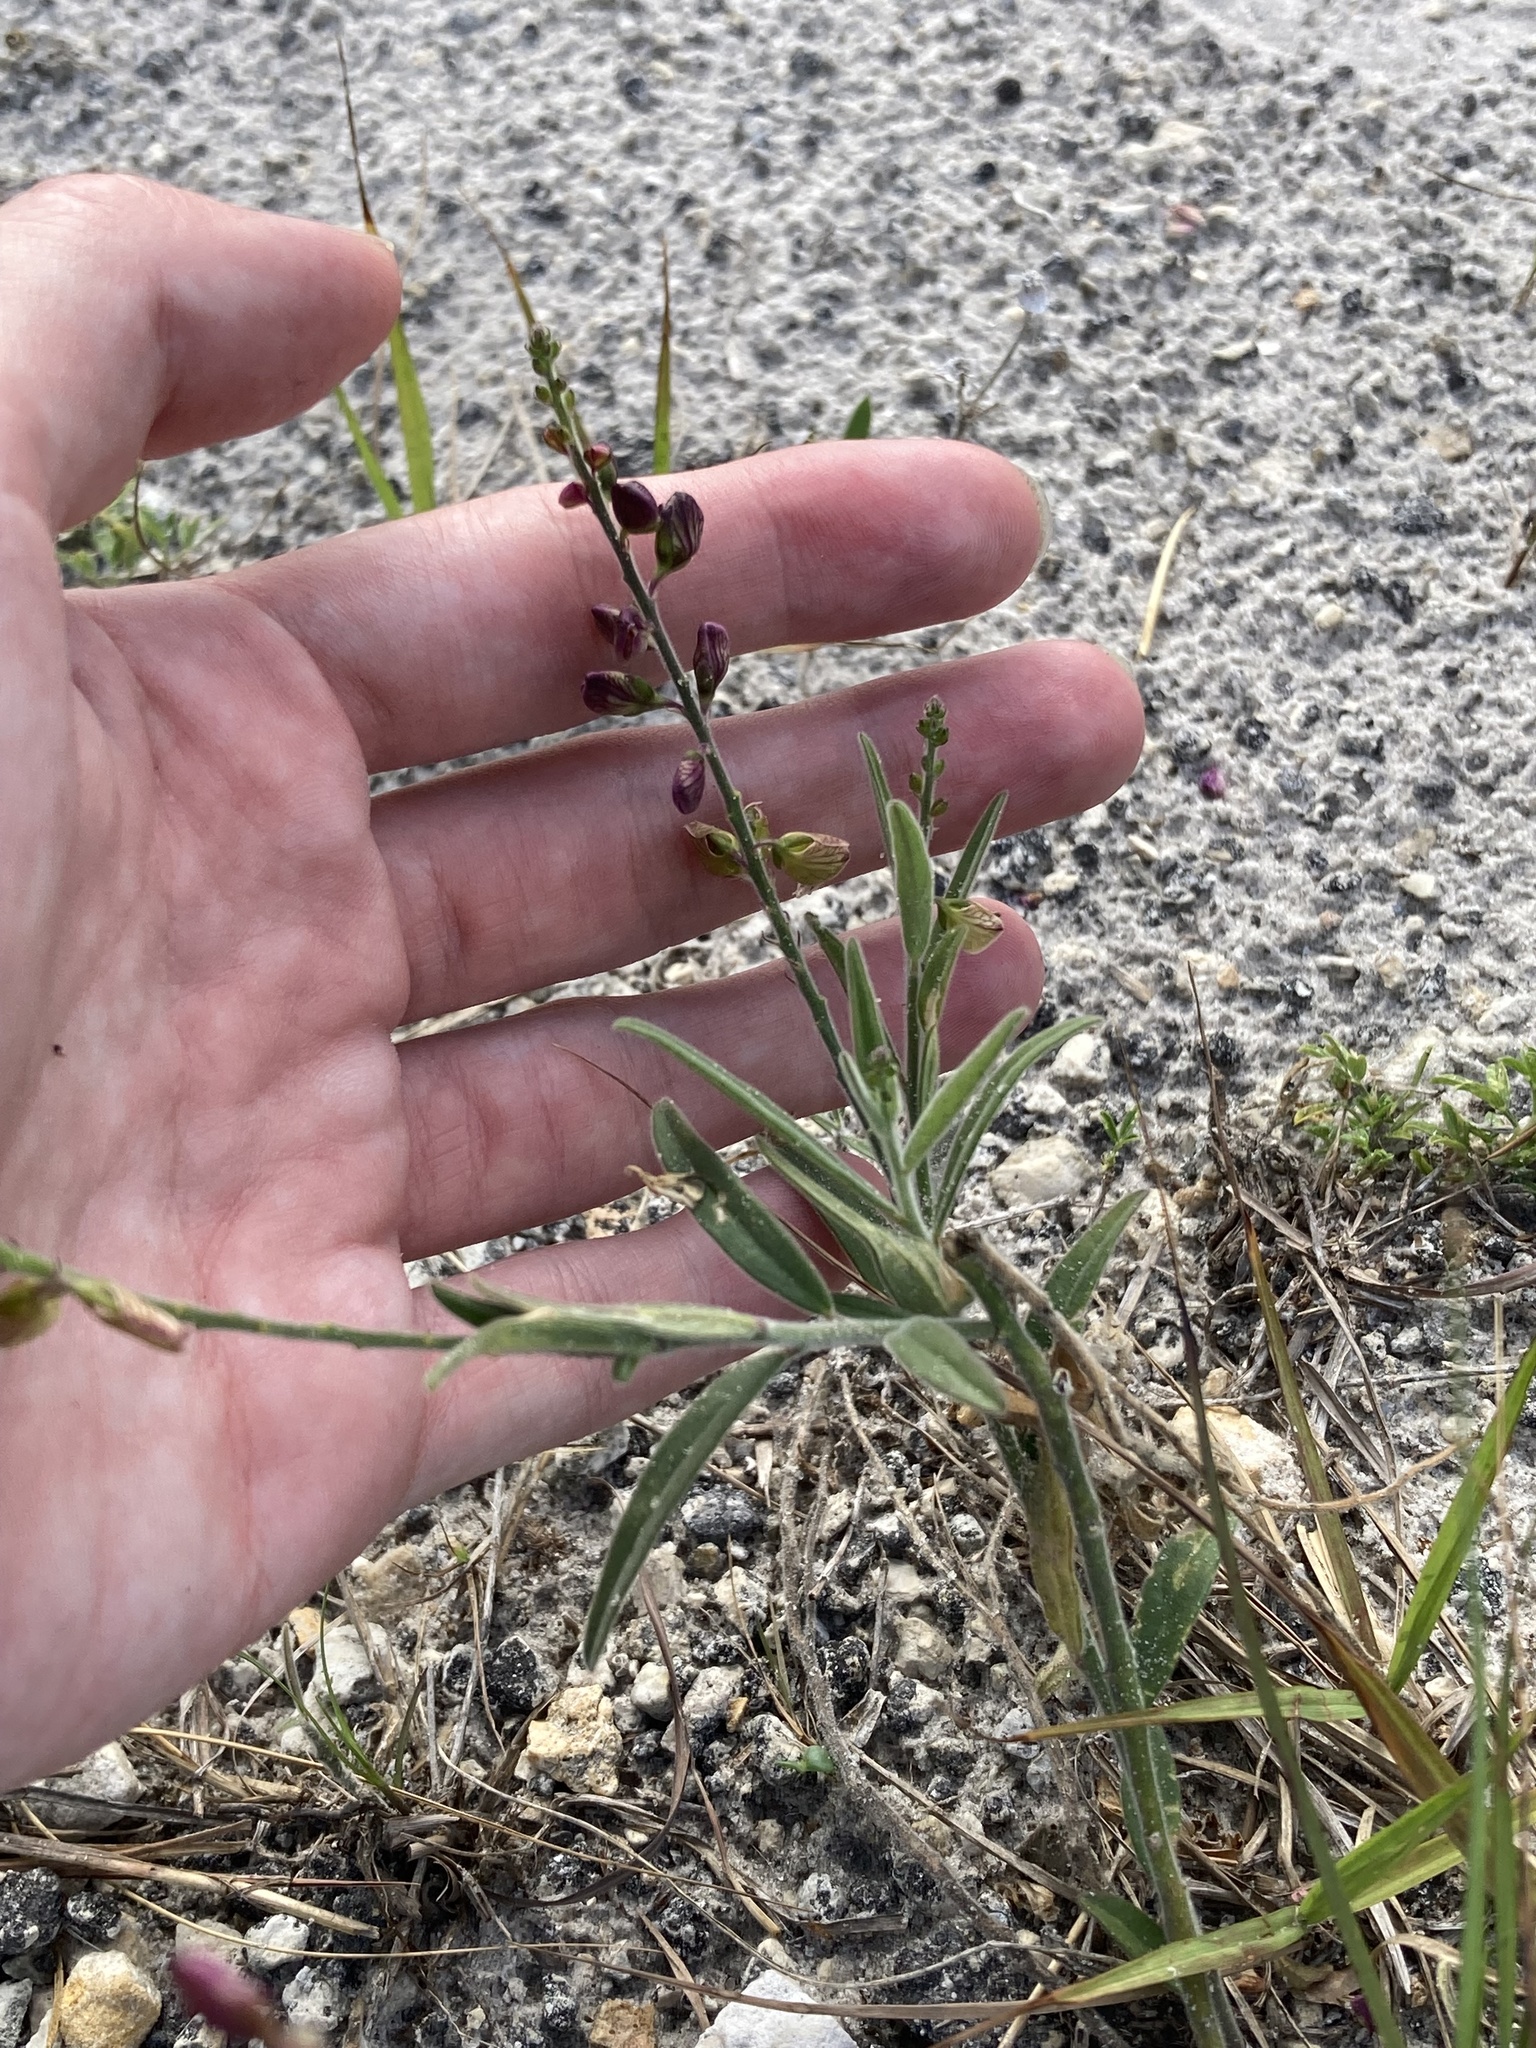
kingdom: Plantae
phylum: Tracheophyta
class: Magnoliopsida
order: Fabales
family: Polygalaceae
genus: Asemeia
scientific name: Asemeia grandiflora
